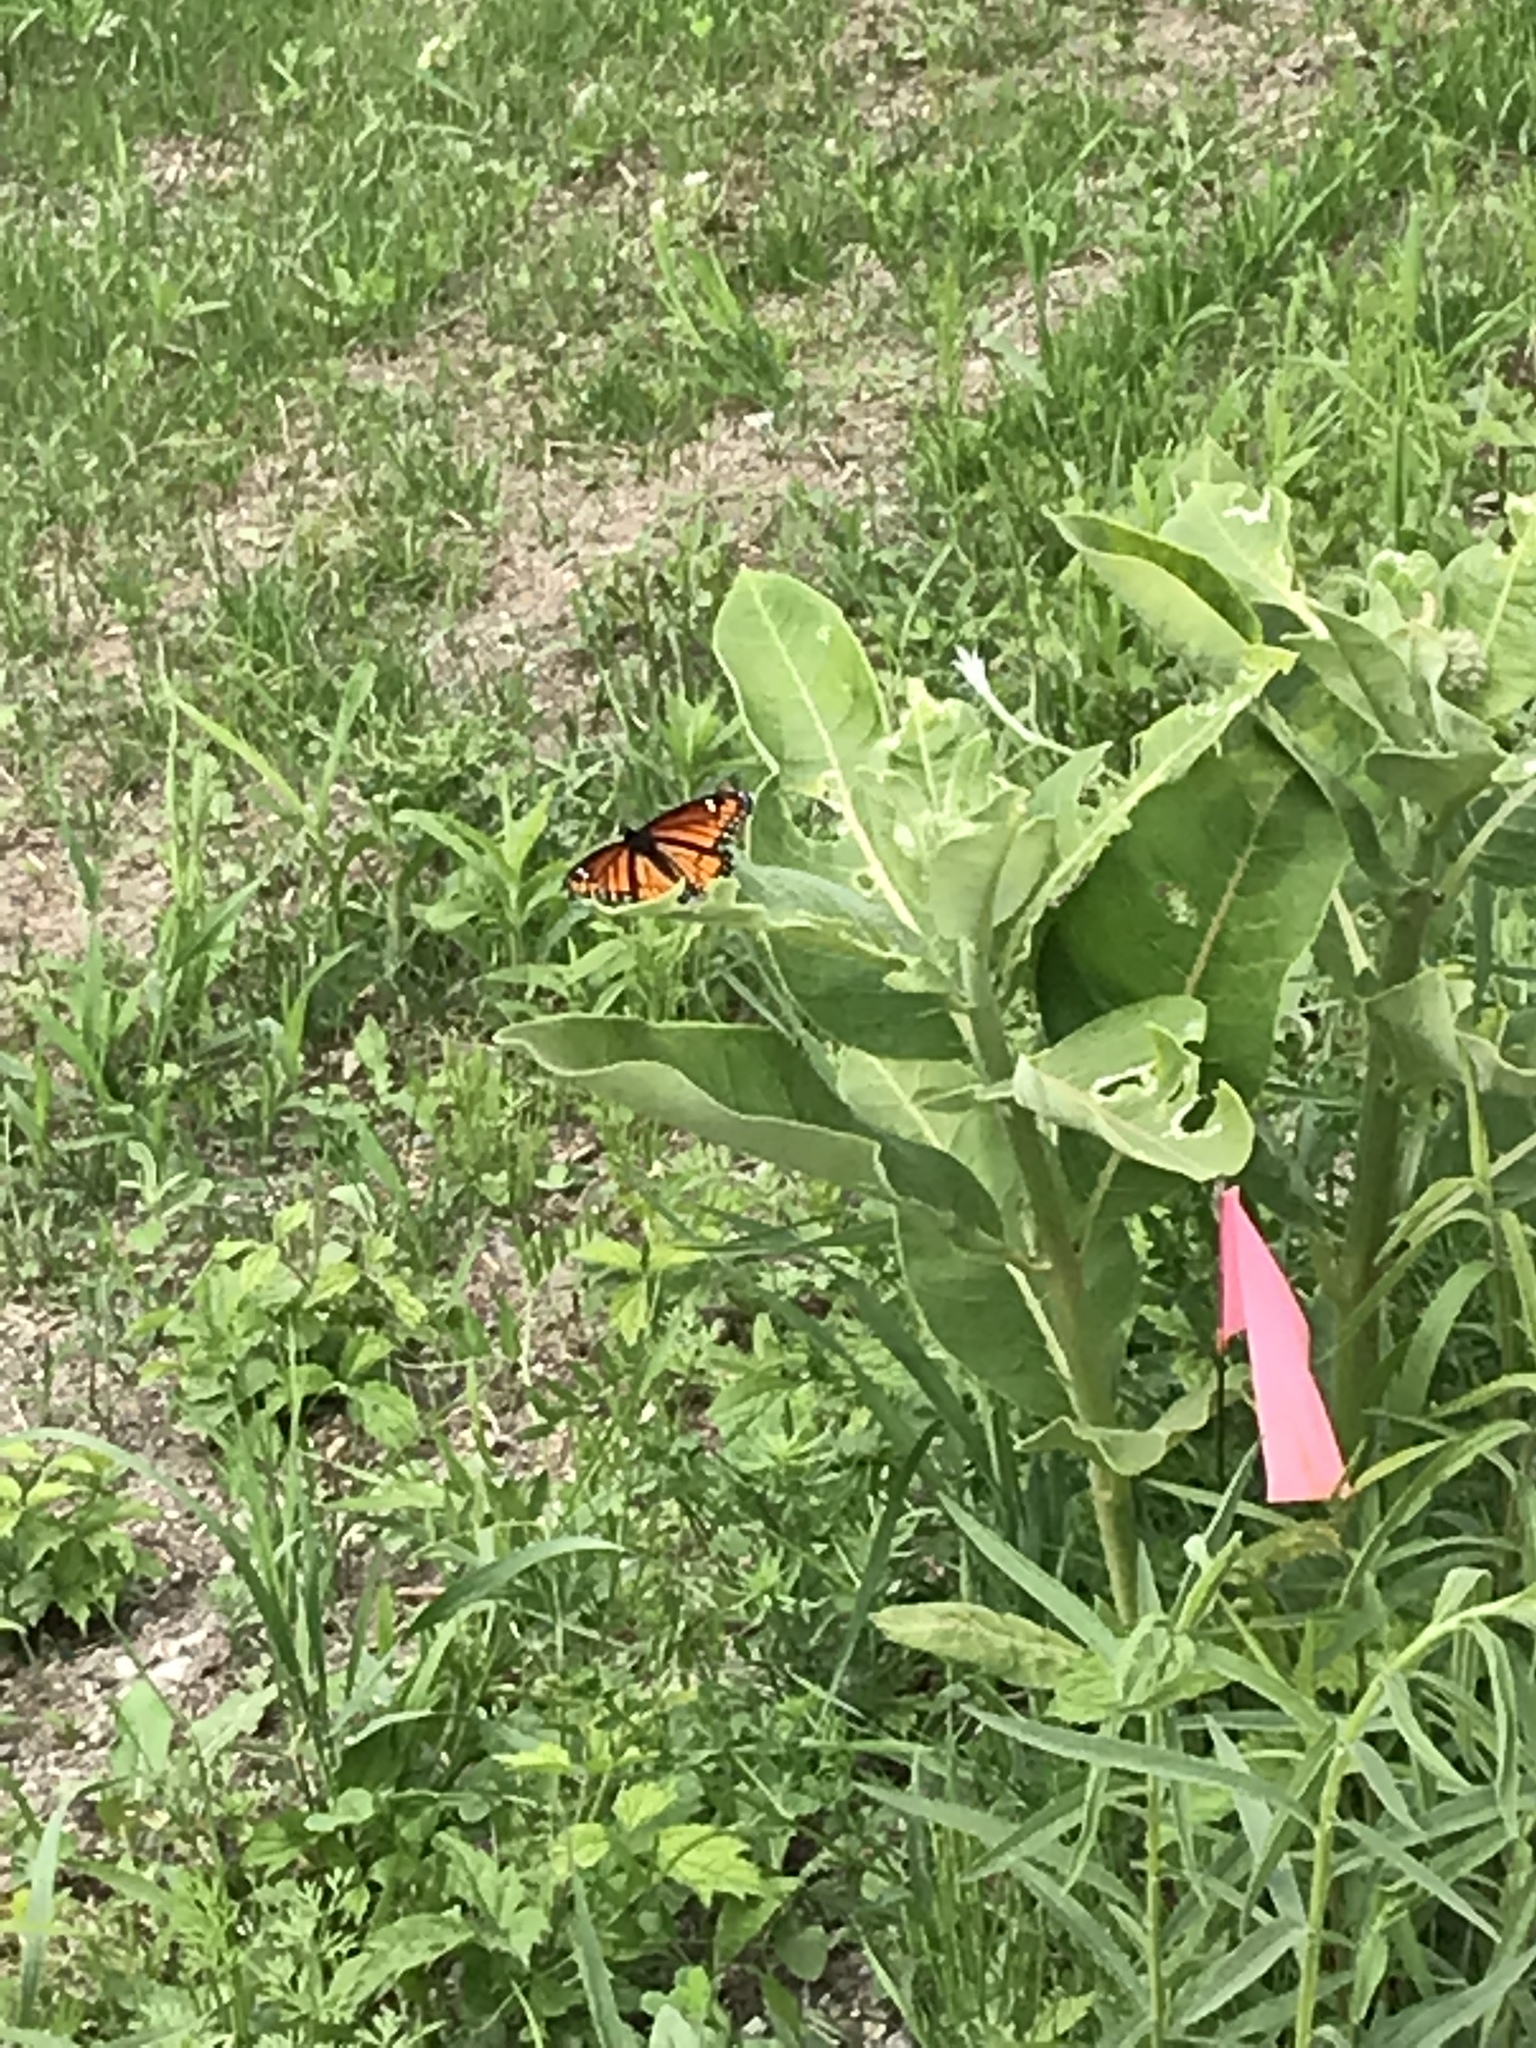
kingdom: Animalia
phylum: Arthropoda
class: Insecta
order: Lepidoptera
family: Nymphalidae
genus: Limenitis
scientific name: Limenitis archippus
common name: Viceroy
